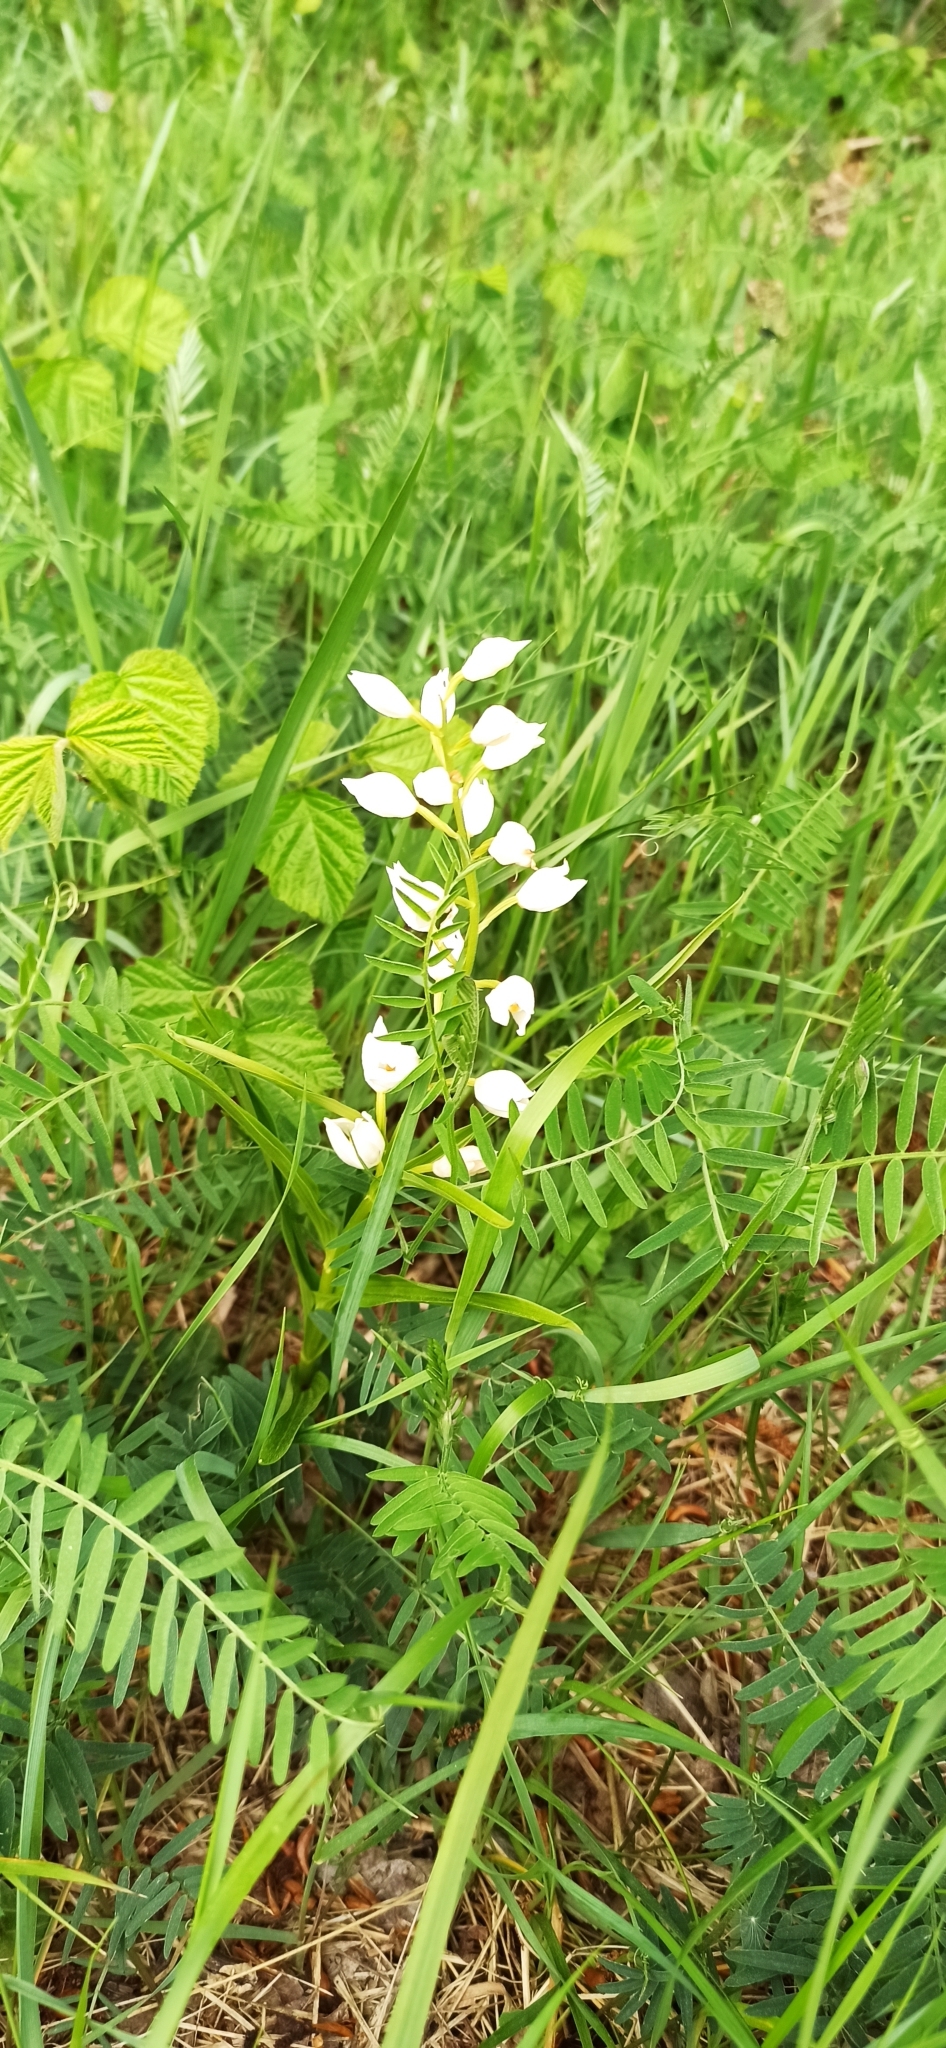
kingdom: Plantae
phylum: Tracheophyta
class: Liliopsida
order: Asparagales
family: Orchidaceae
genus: Cephalanthera
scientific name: Cephalanthera longifolia
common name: Narrow-leaved helleborine
